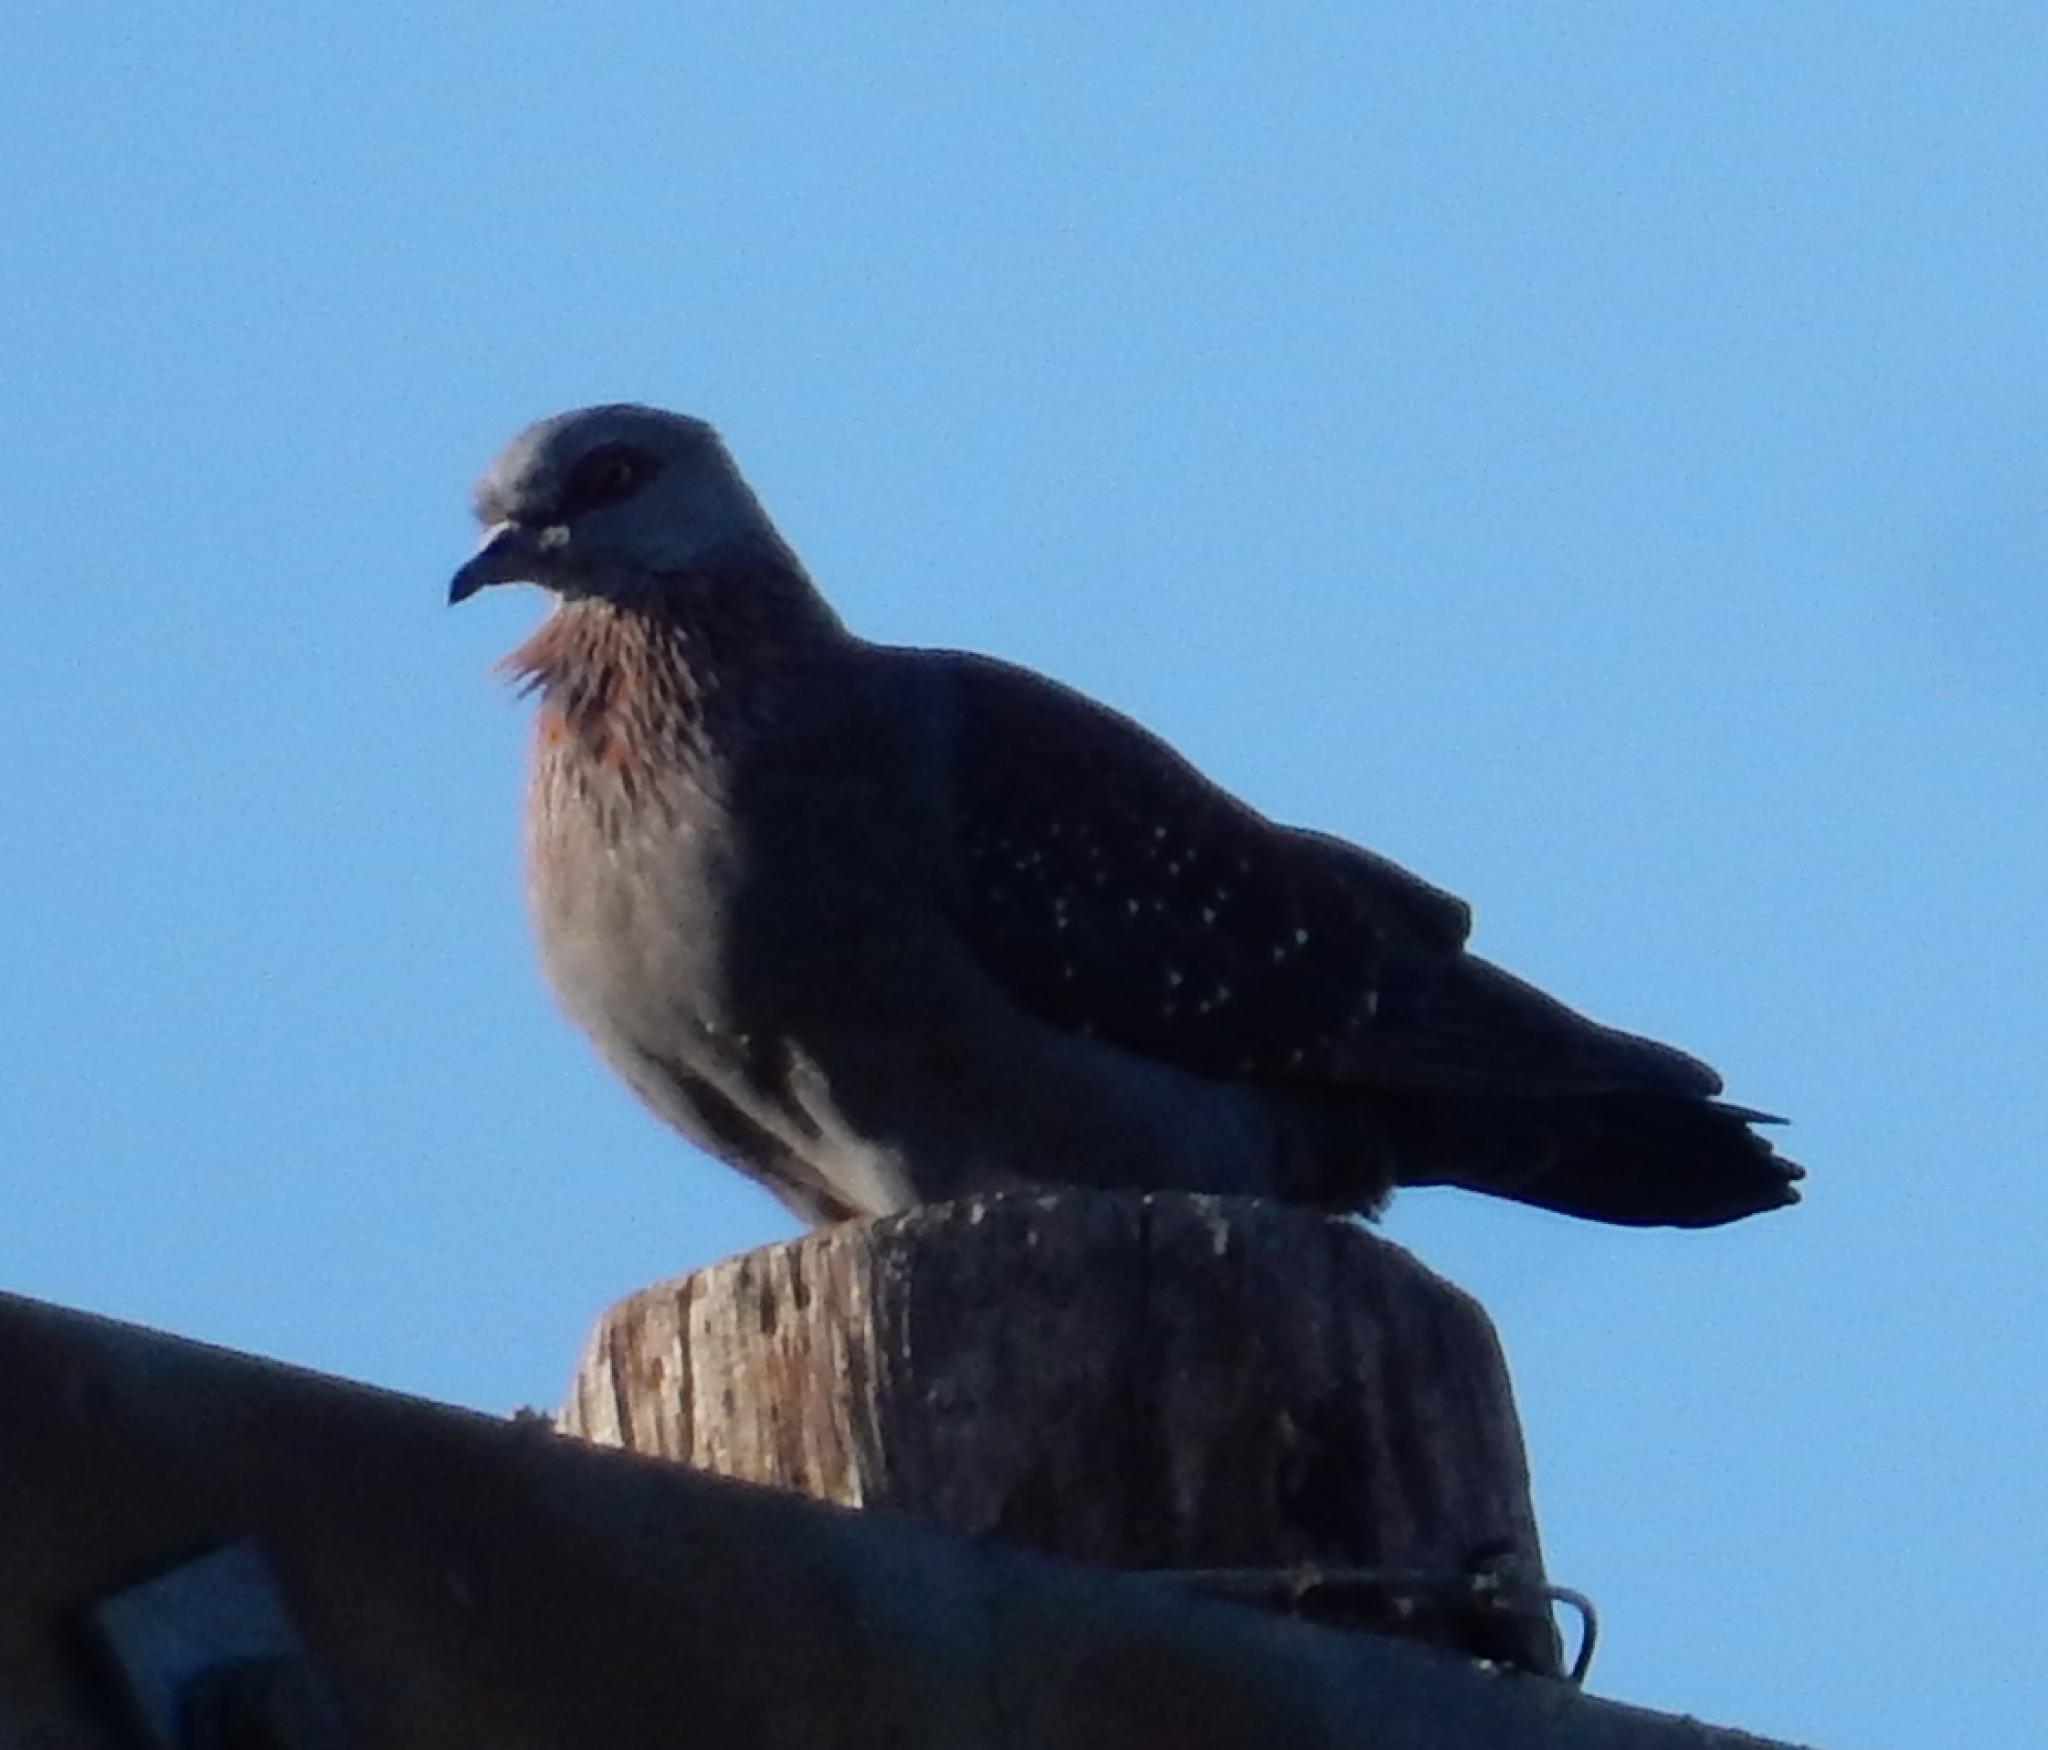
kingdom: Animalia
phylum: Chordata
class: Aves
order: Columbiformes
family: Columbidae
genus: Columba
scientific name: Columba guinea
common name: Speckled pigeon
